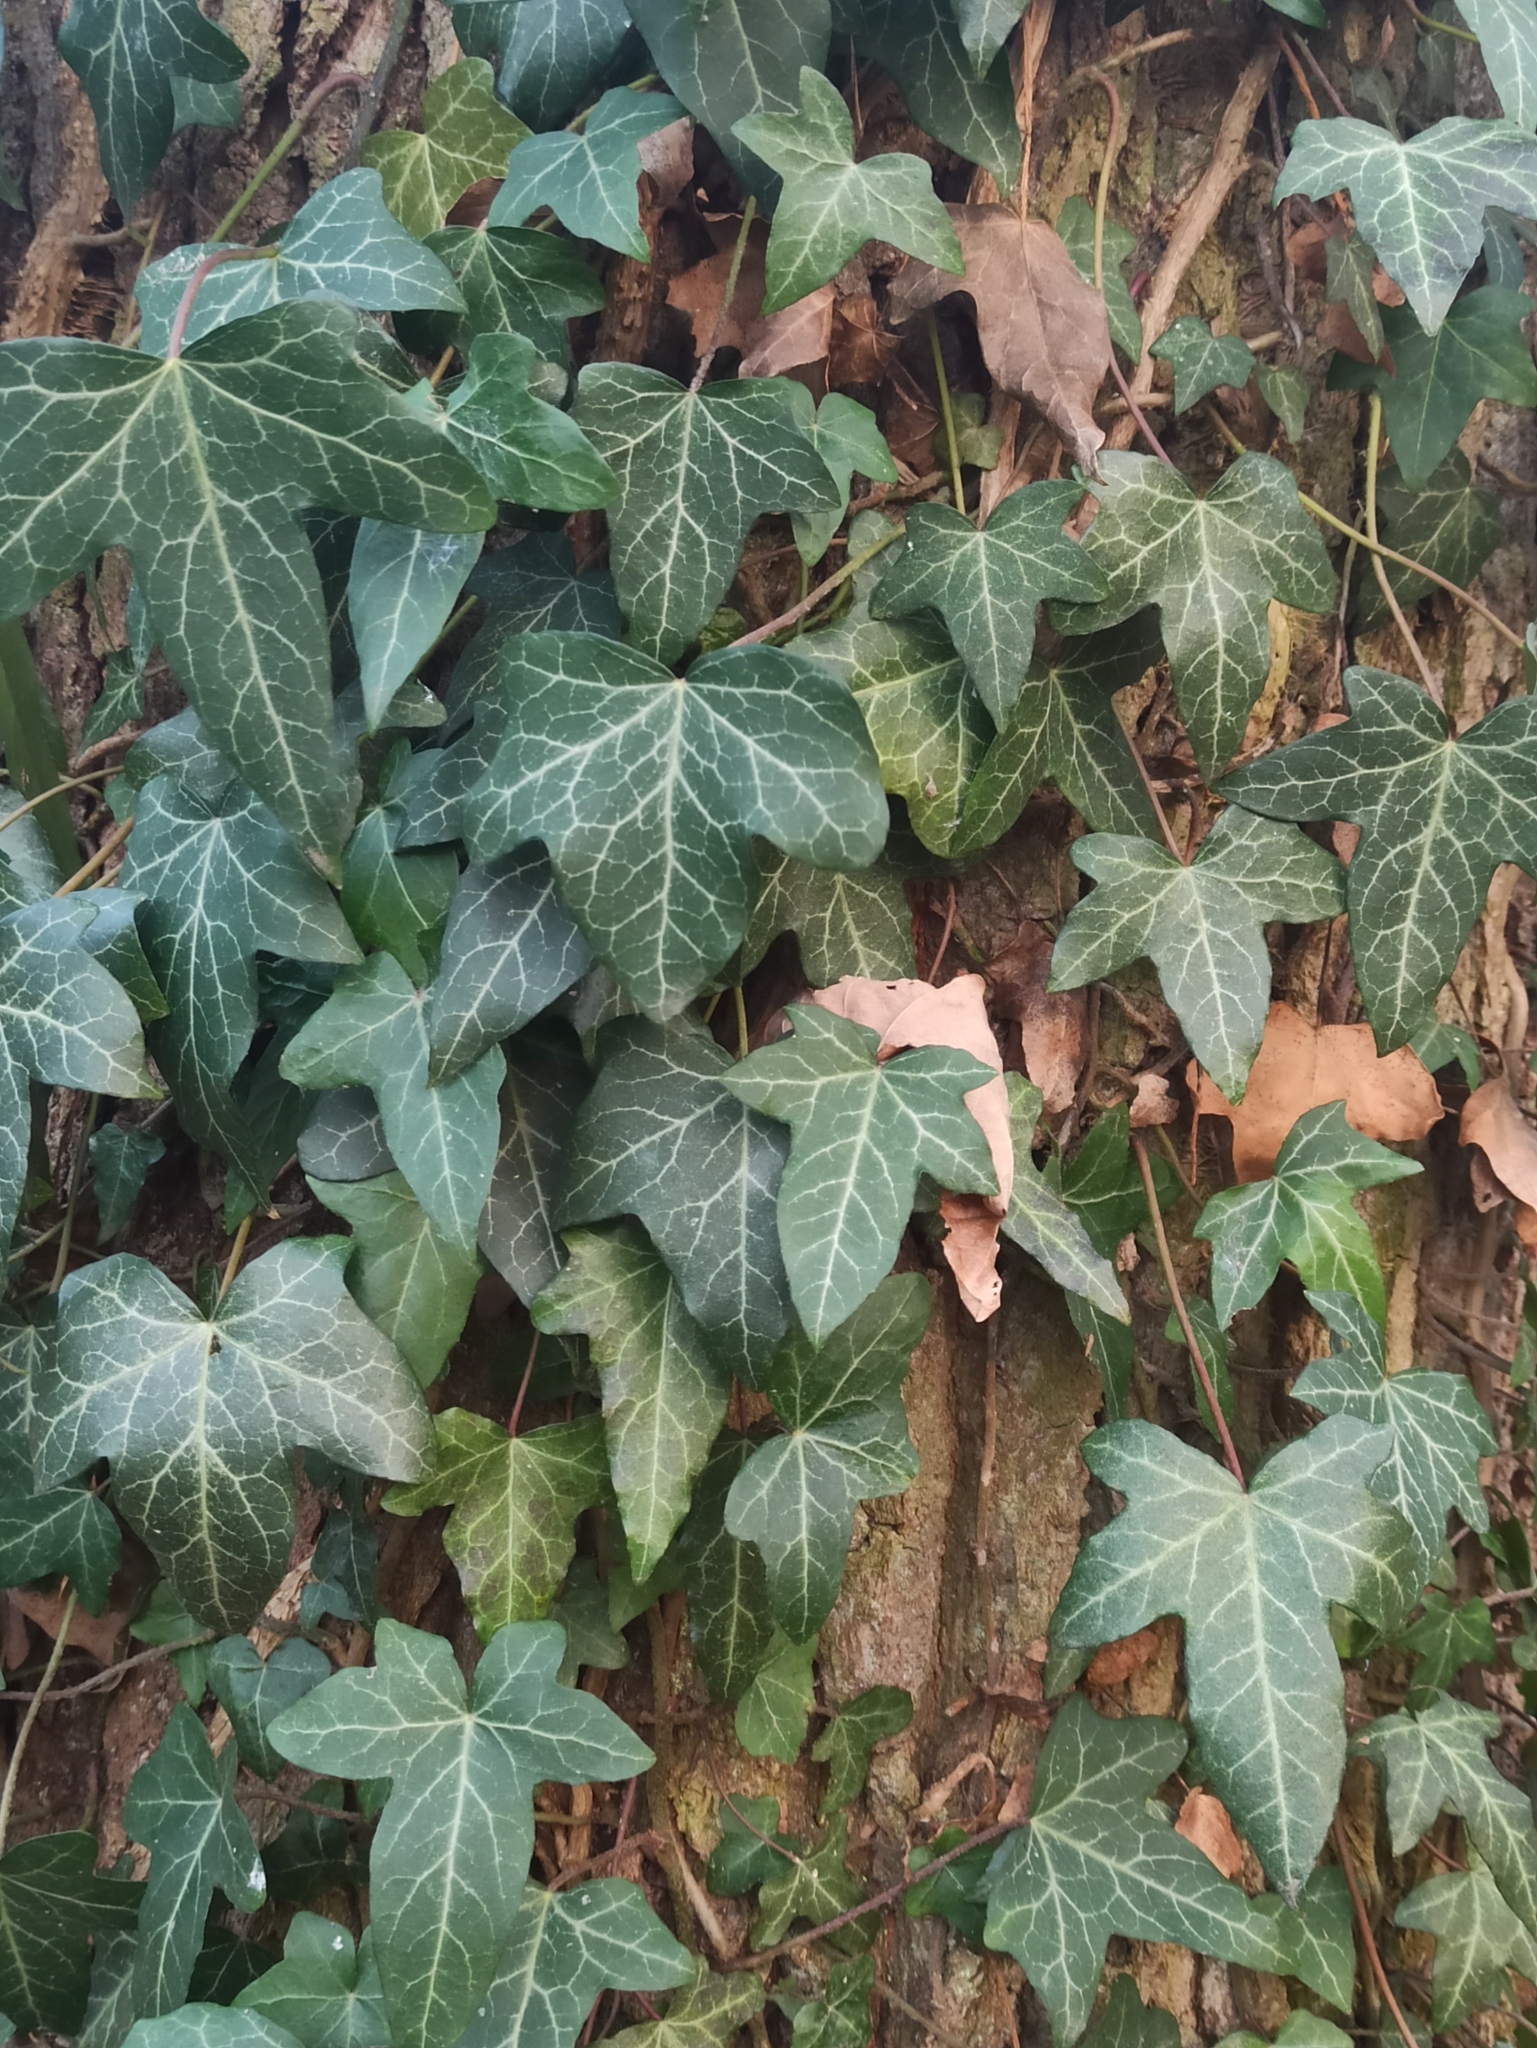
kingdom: Plantae
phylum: Tracheophyta
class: Magnoliopsida
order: Apiales
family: Araliaceae
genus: Hedera
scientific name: Hedera helix
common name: Ivy
